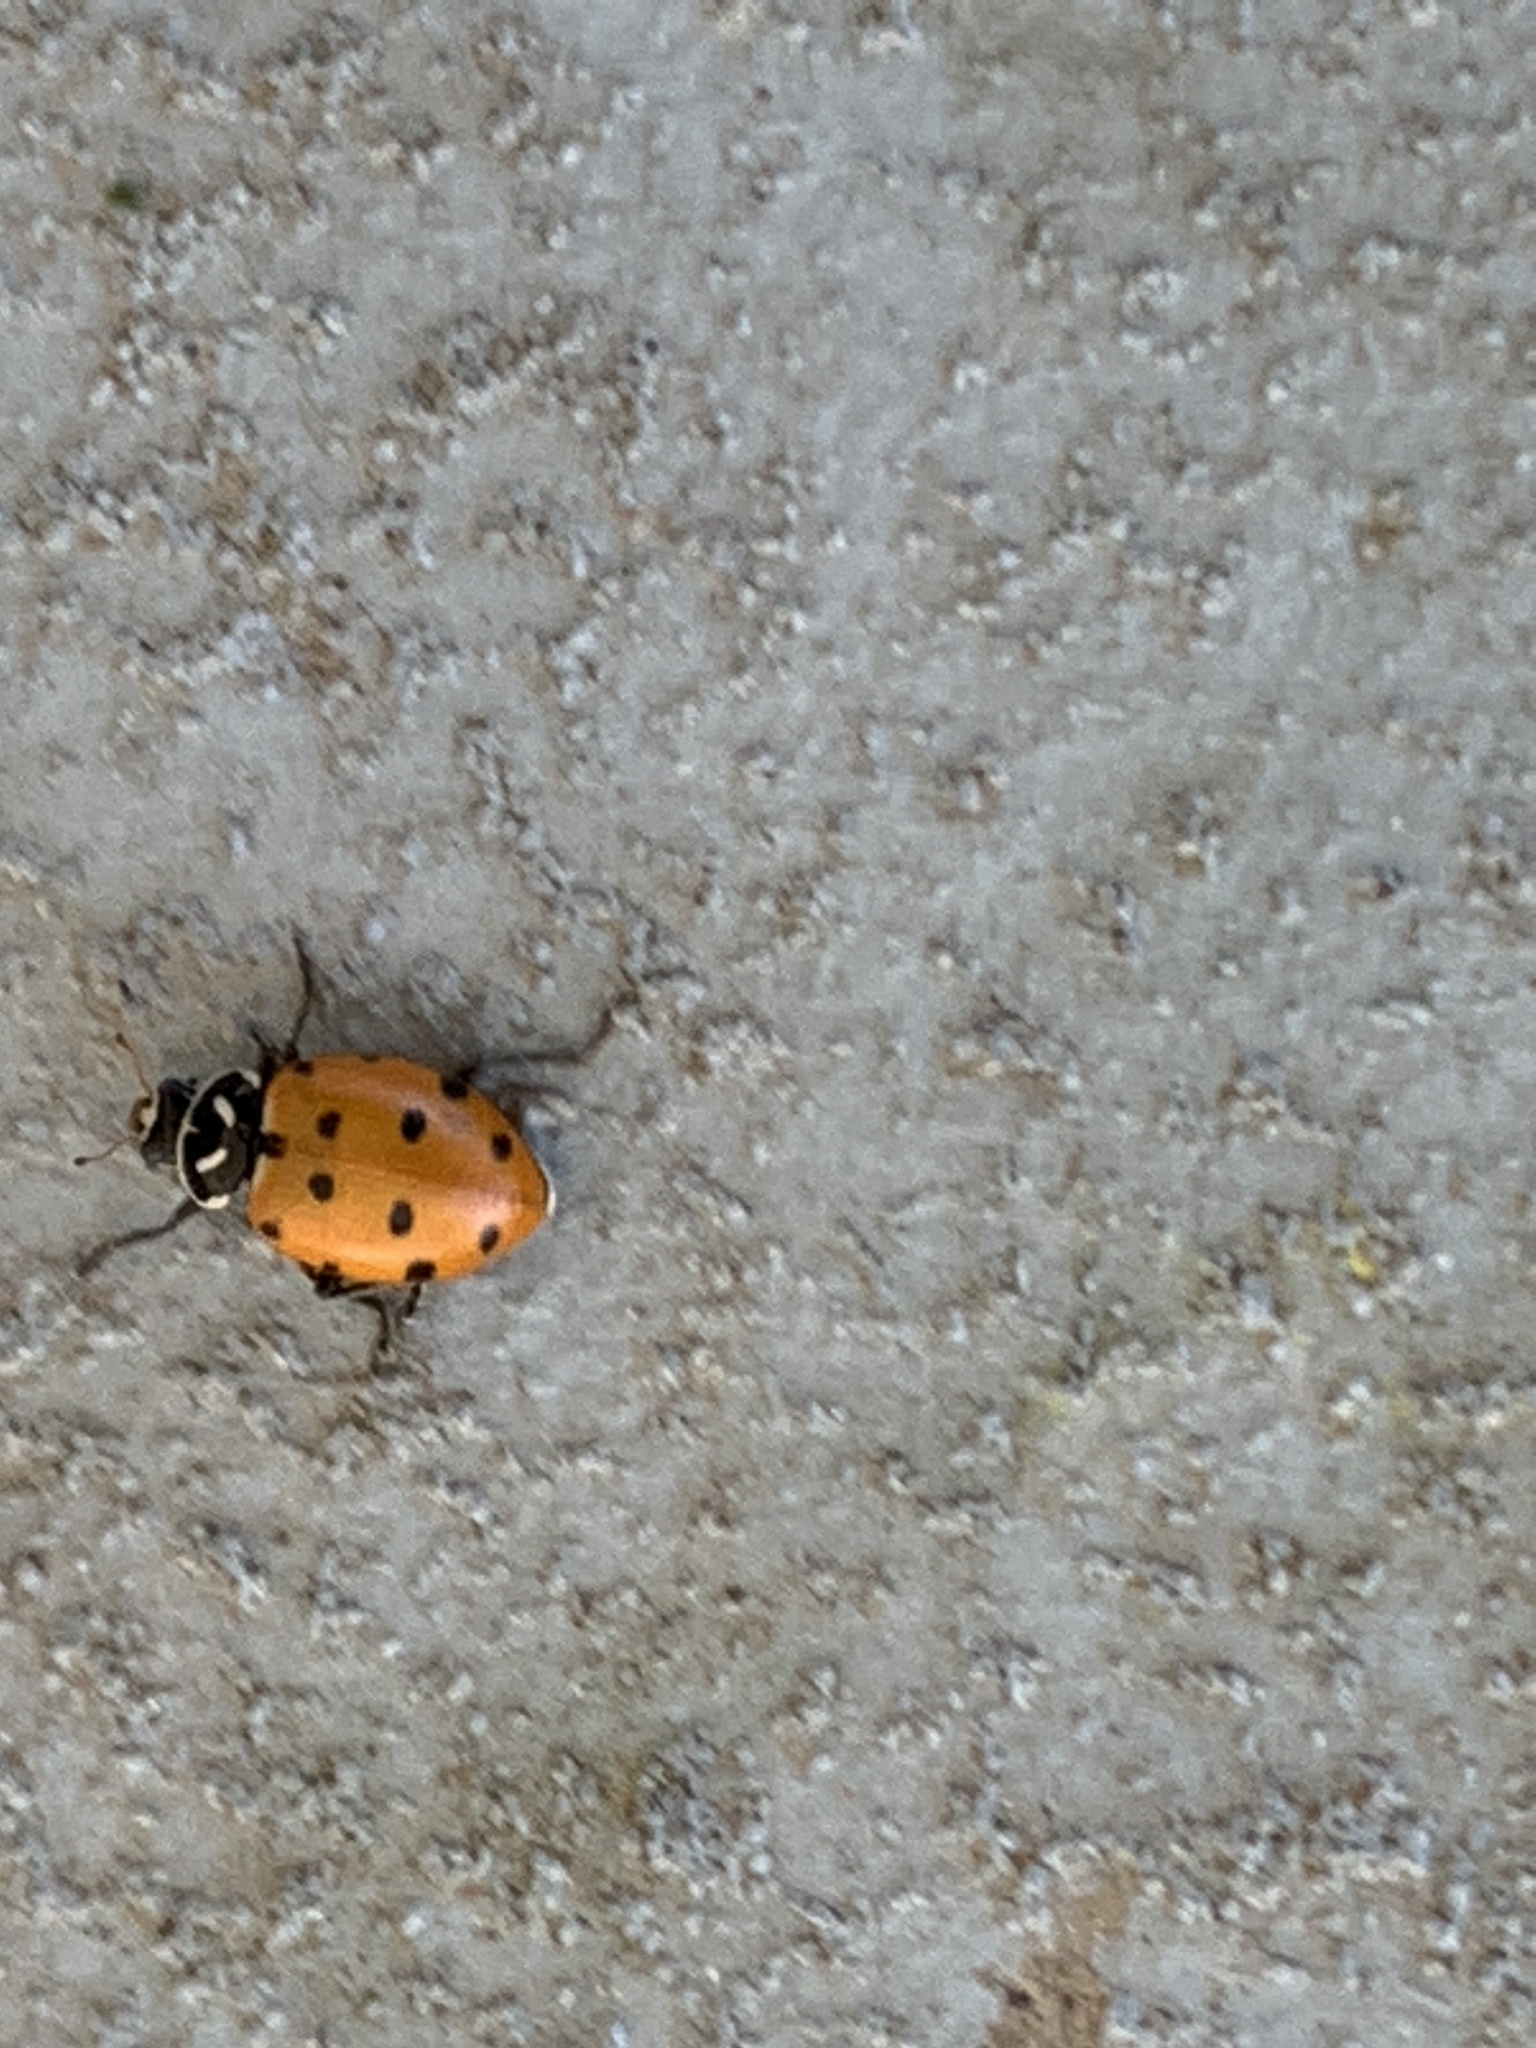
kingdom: Animalia
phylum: Arthropoda
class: Insecta
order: Coleoptera
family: Coccinellidae
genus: Hippodamia
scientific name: Hippodamia convergens
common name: Convergent lady beetle
